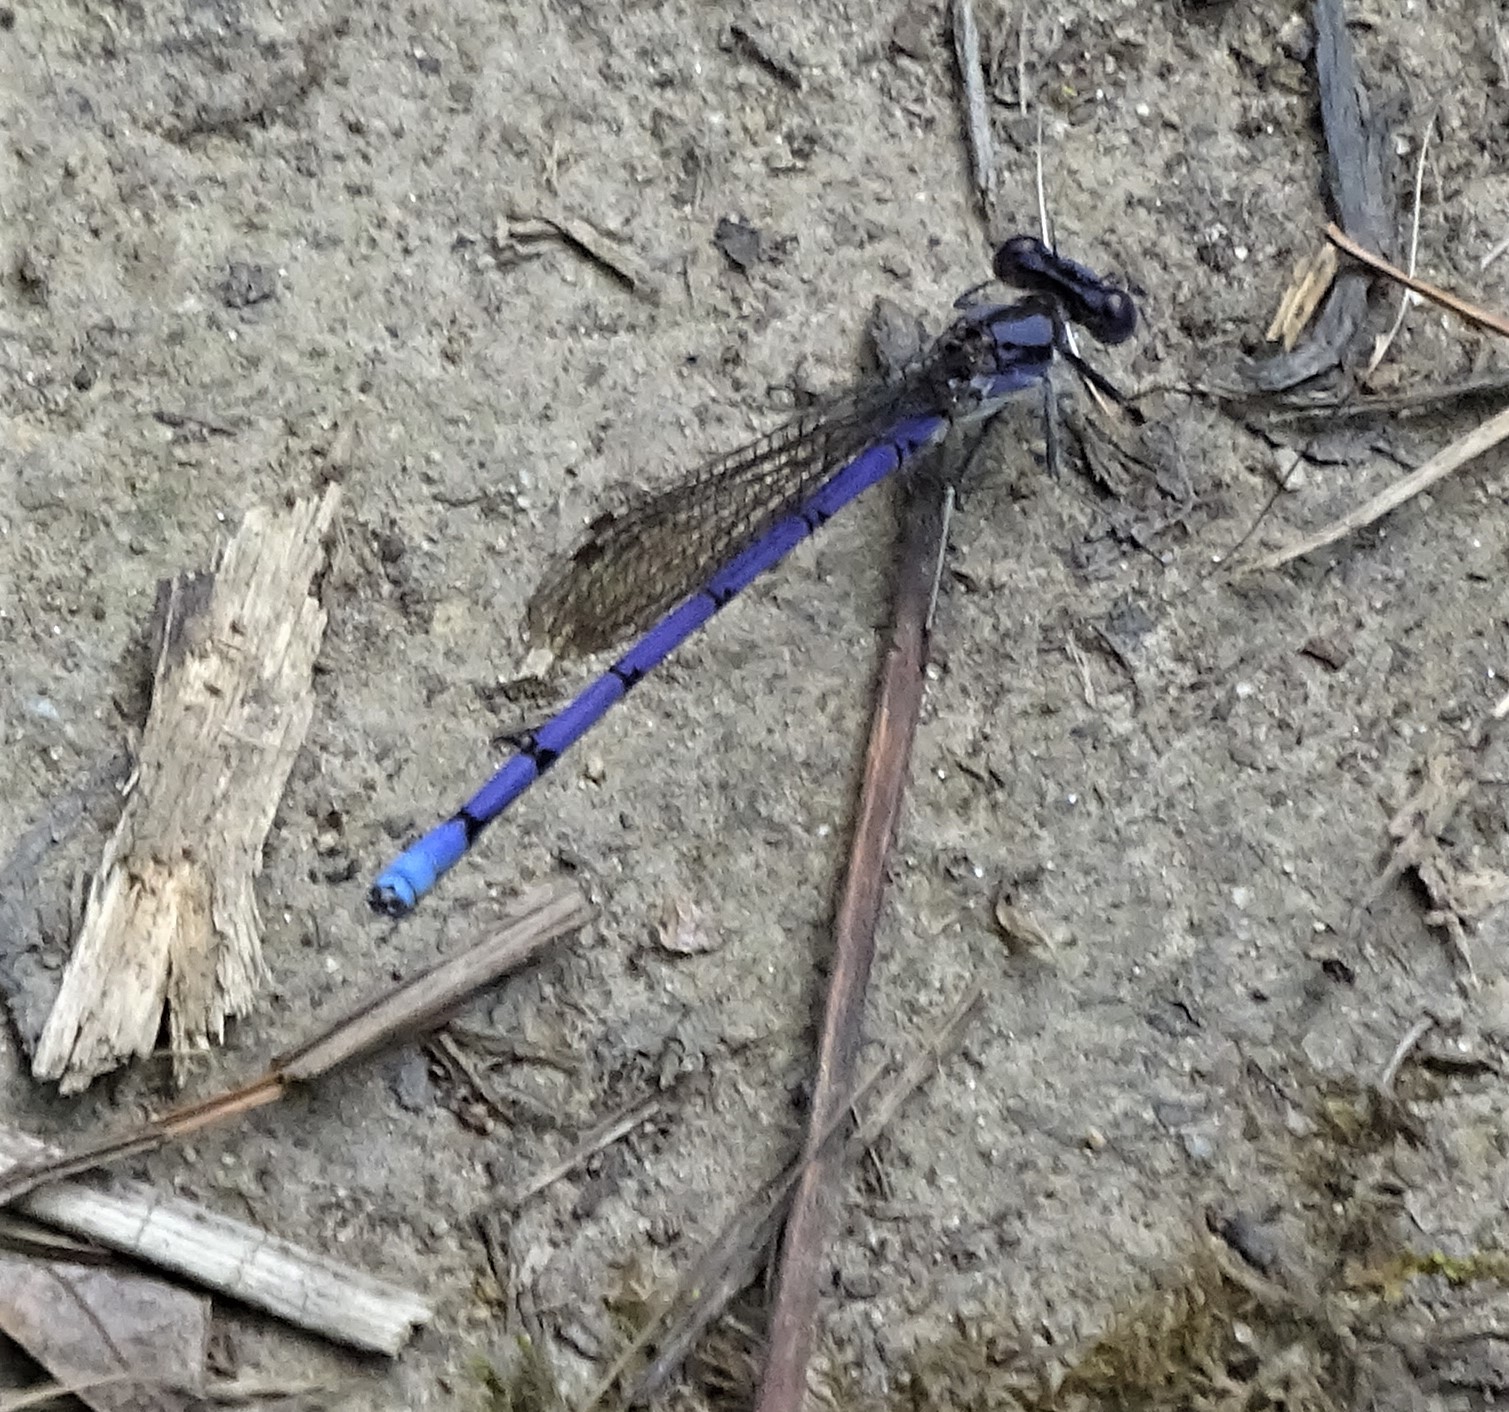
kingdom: Animalia
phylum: Arthropoda
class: Insecta
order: Odonata
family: Coenagrionidae
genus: Argia
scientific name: Argia fumipennis
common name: Variable dancer
